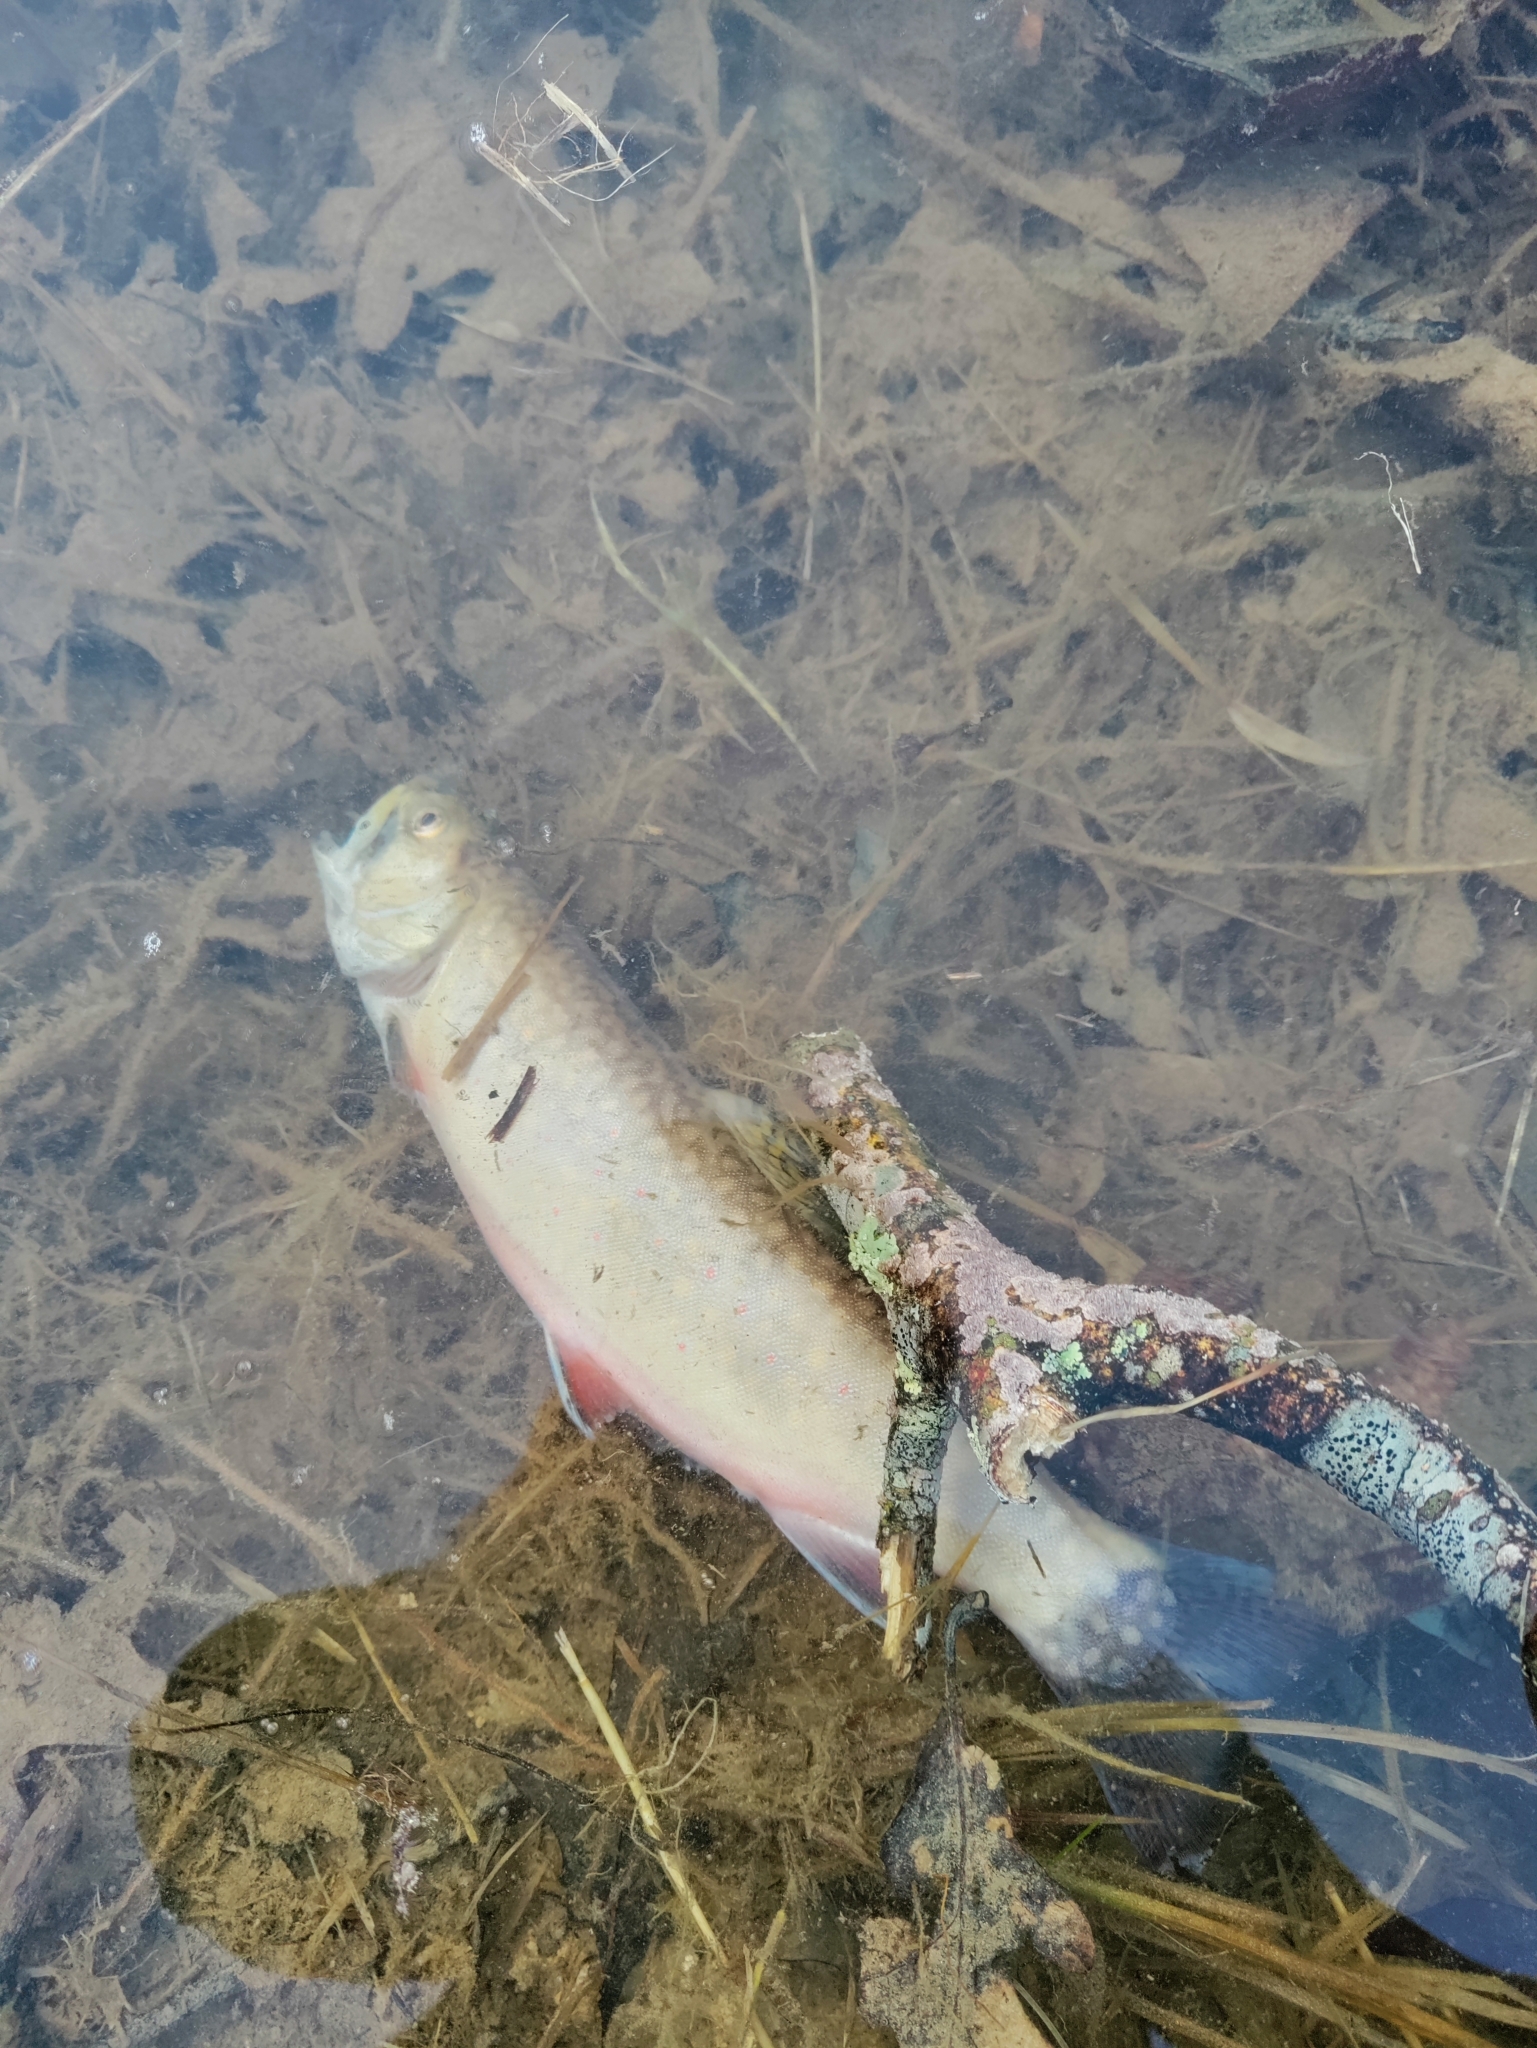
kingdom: Animalia
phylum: Chordata
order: Salmoniformes
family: Salmonidae
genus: Salvelinus
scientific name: Salvelinus fontinalis
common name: Brook trout
